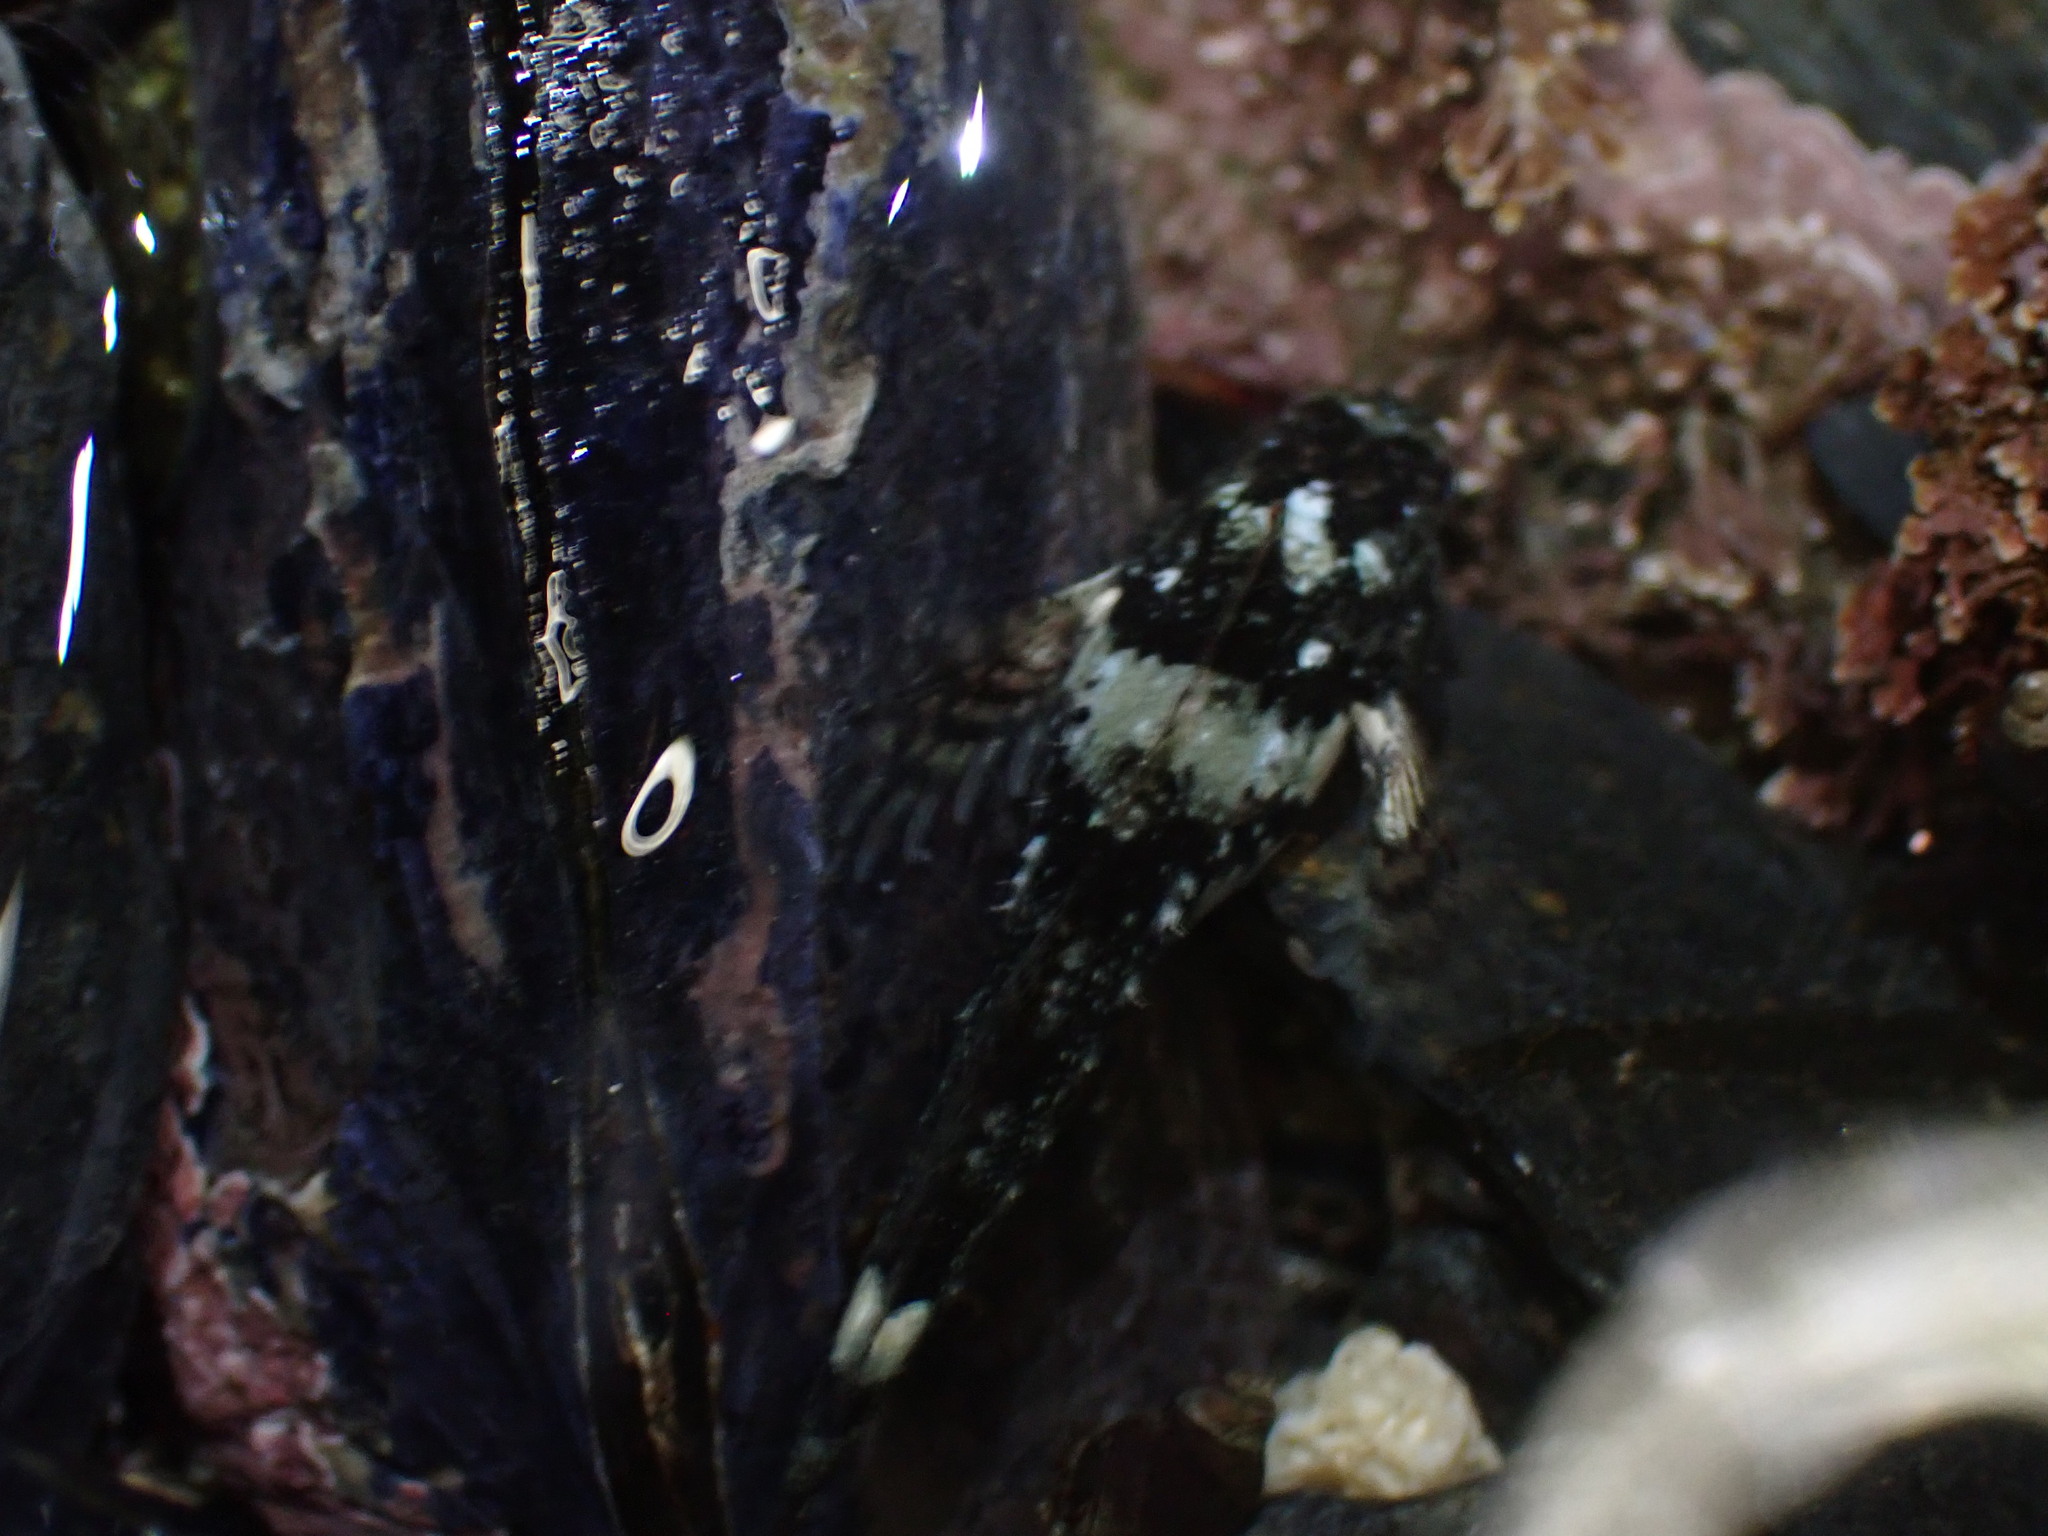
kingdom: Animalia
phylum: Chordata
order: Scorpaeniformes
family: Cottidae
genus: Oligocottus
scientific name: Oligocottus maculosus
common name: Tidepool sculpin
